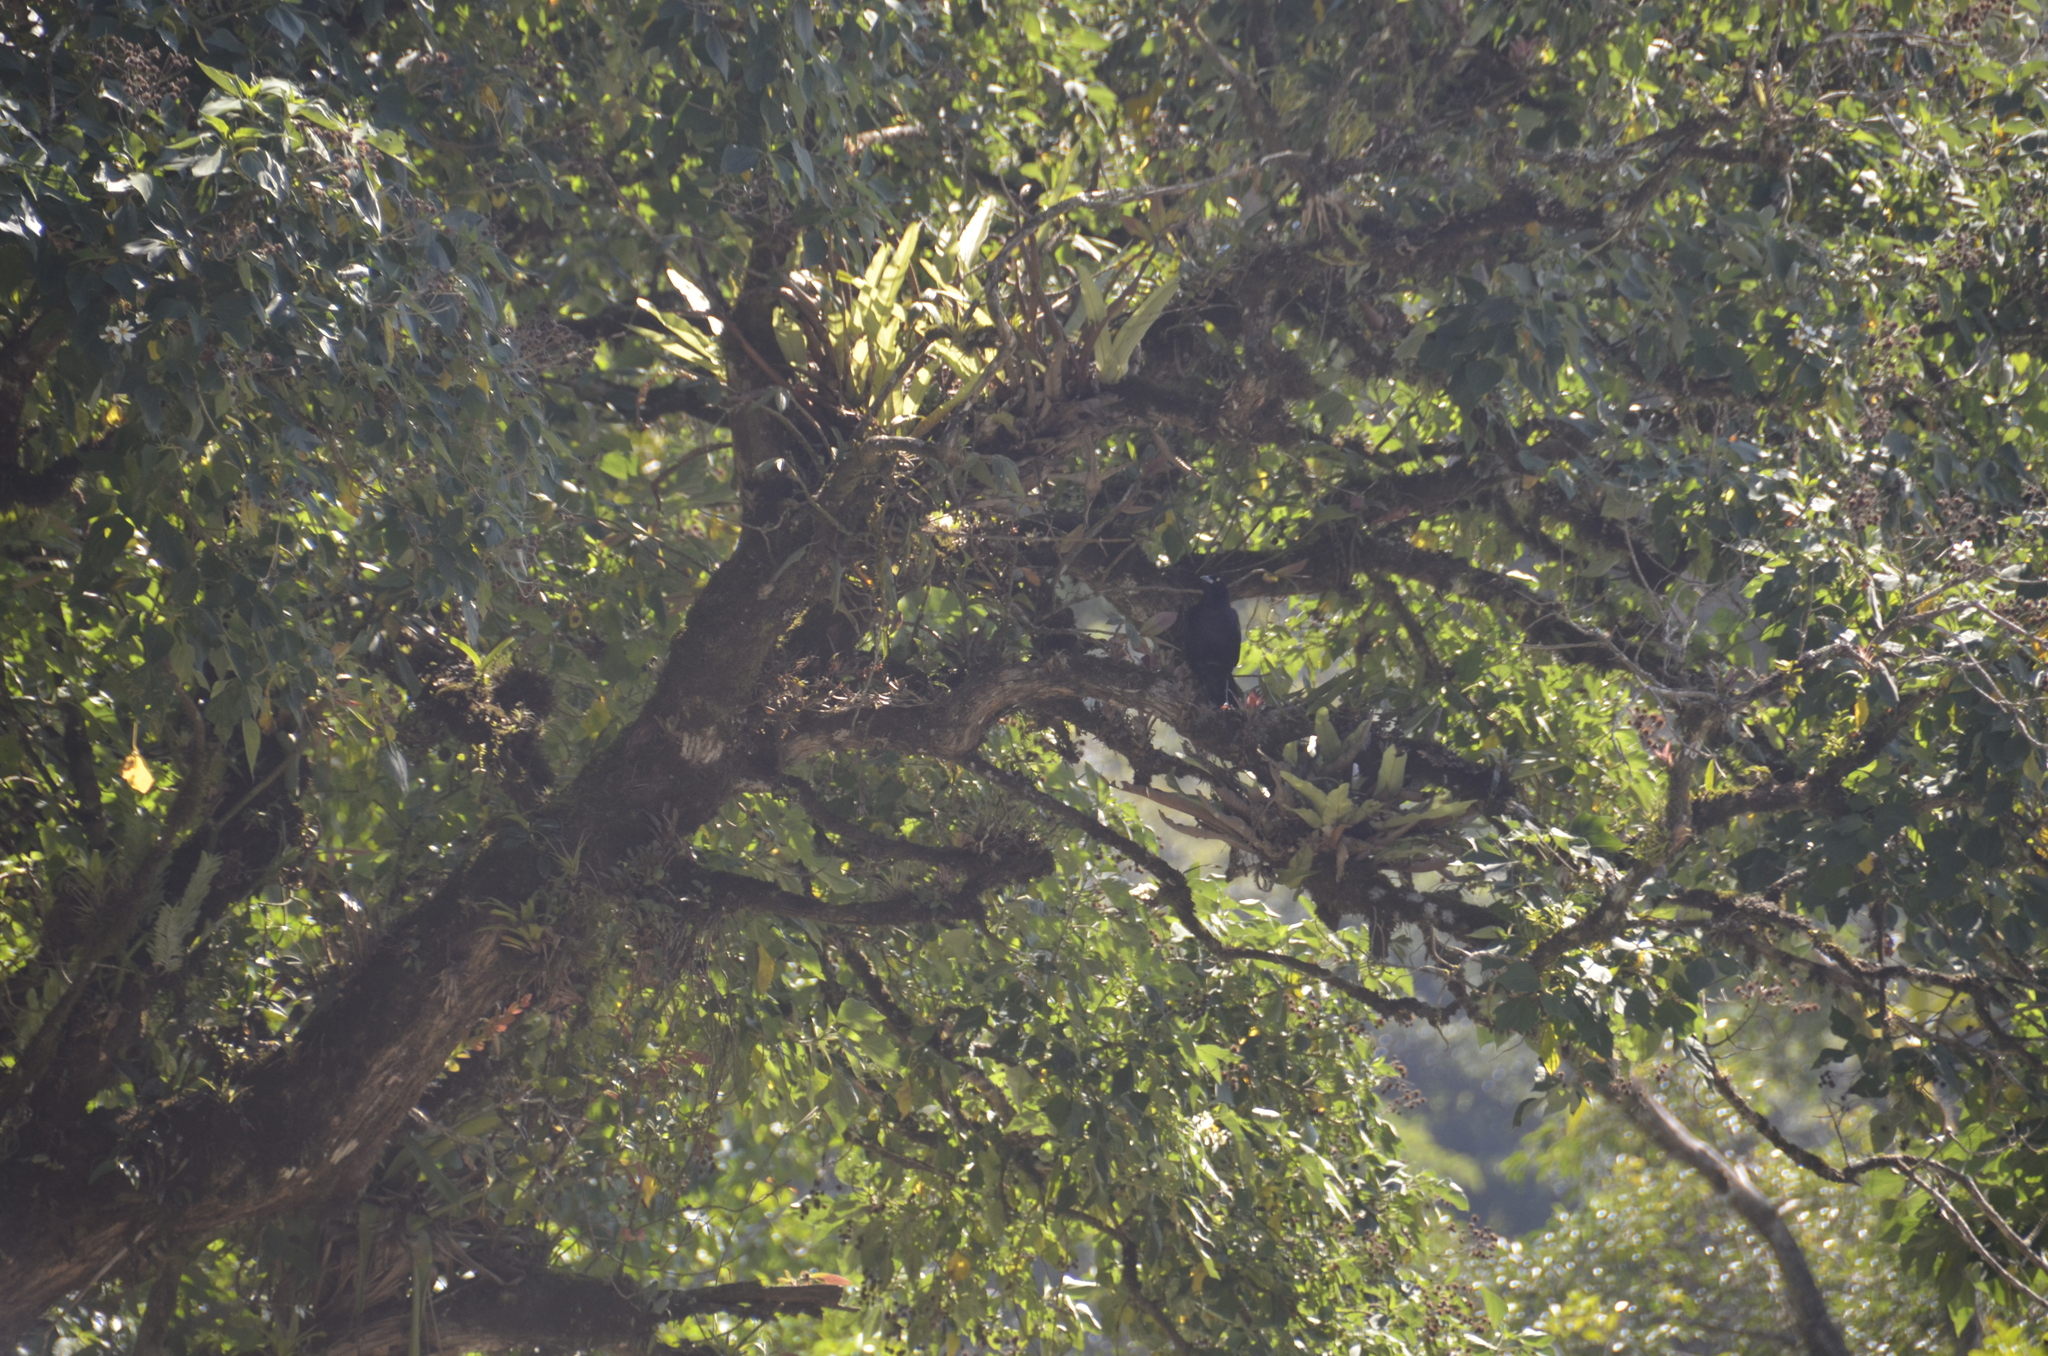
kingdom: Animalia
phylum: Chordata
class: Aves
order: Passeriformes
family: Icteridae
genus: Quiscalus
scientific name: Quiscalus mexicanus
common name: Great-tailed grackle
